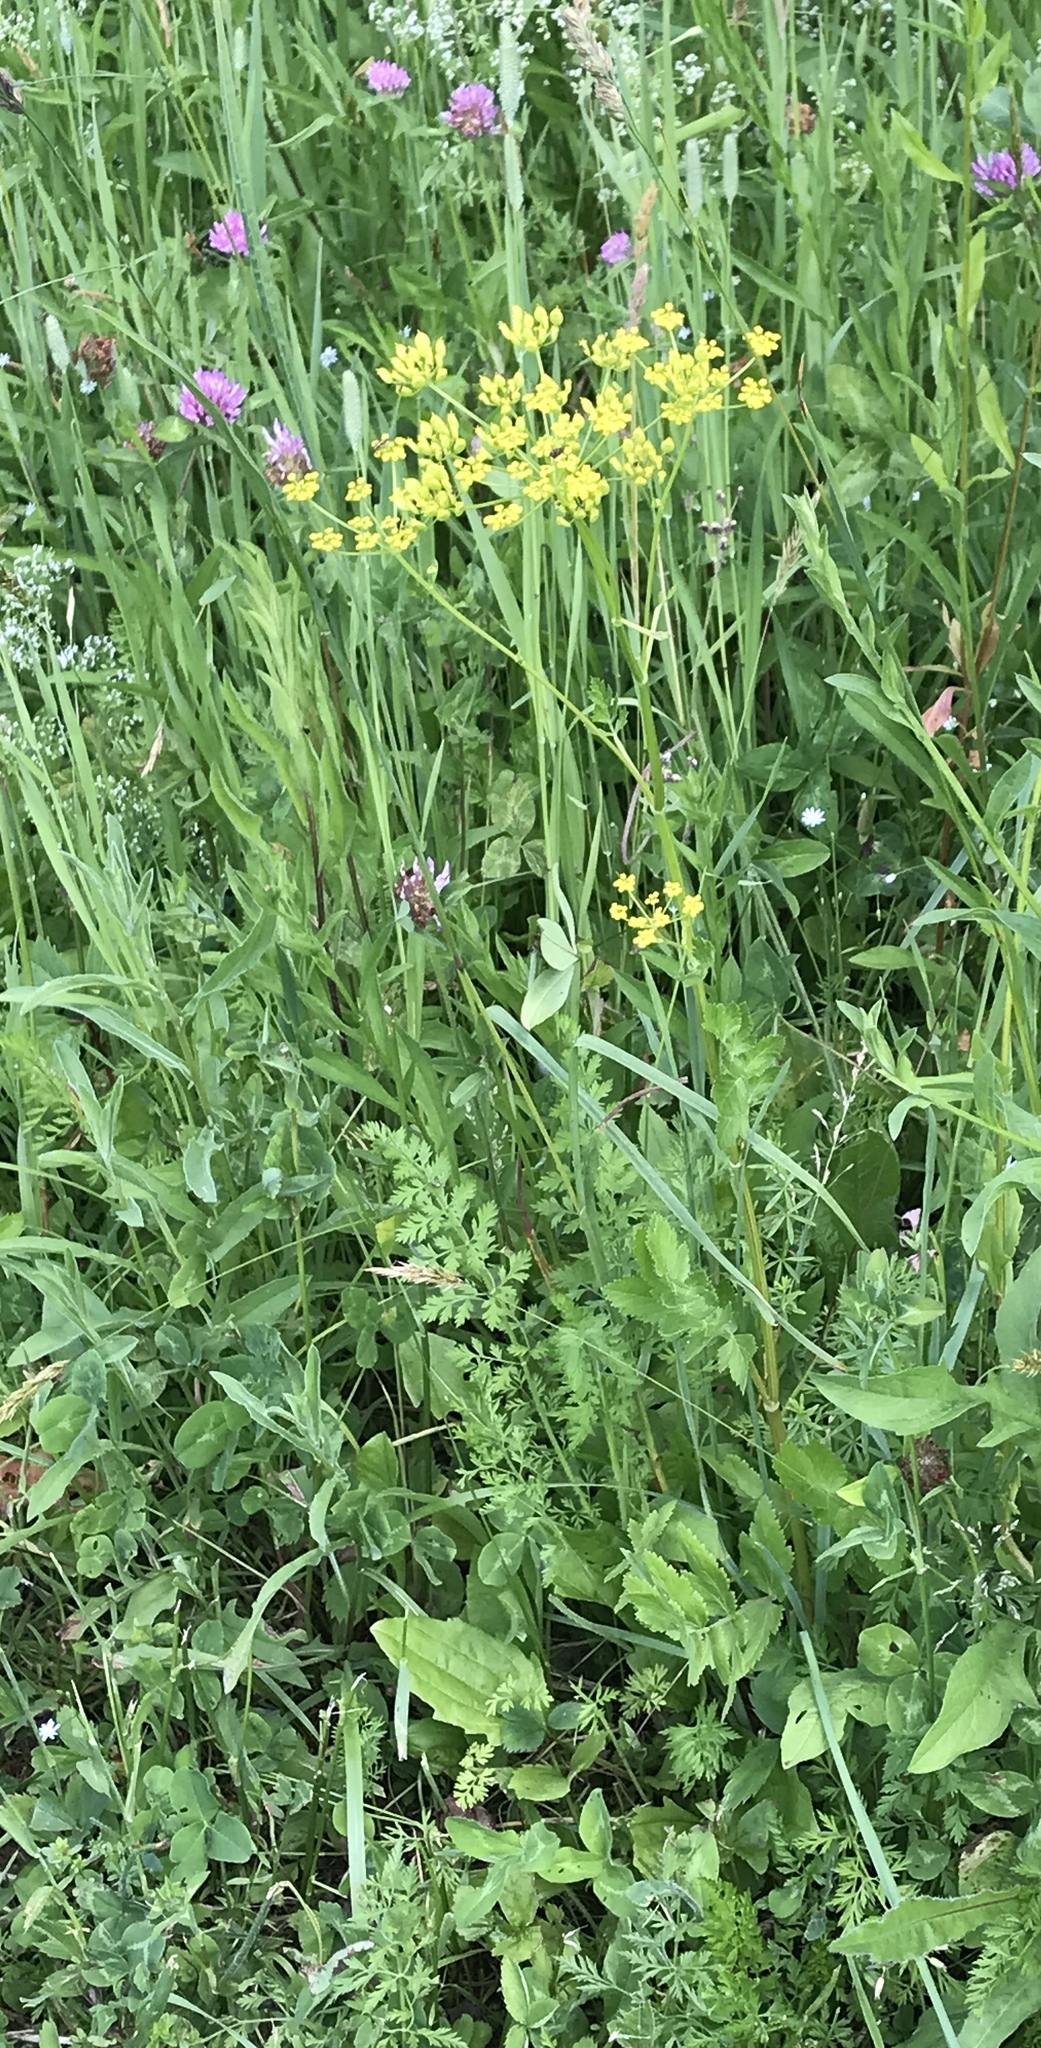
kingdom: Plantae
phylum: Tracheophyta
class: Magnoliopsida
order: Apiales
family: Apiaceae
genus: Pastinaca
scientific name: Pastinaca sativa
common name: Wild parsnip
